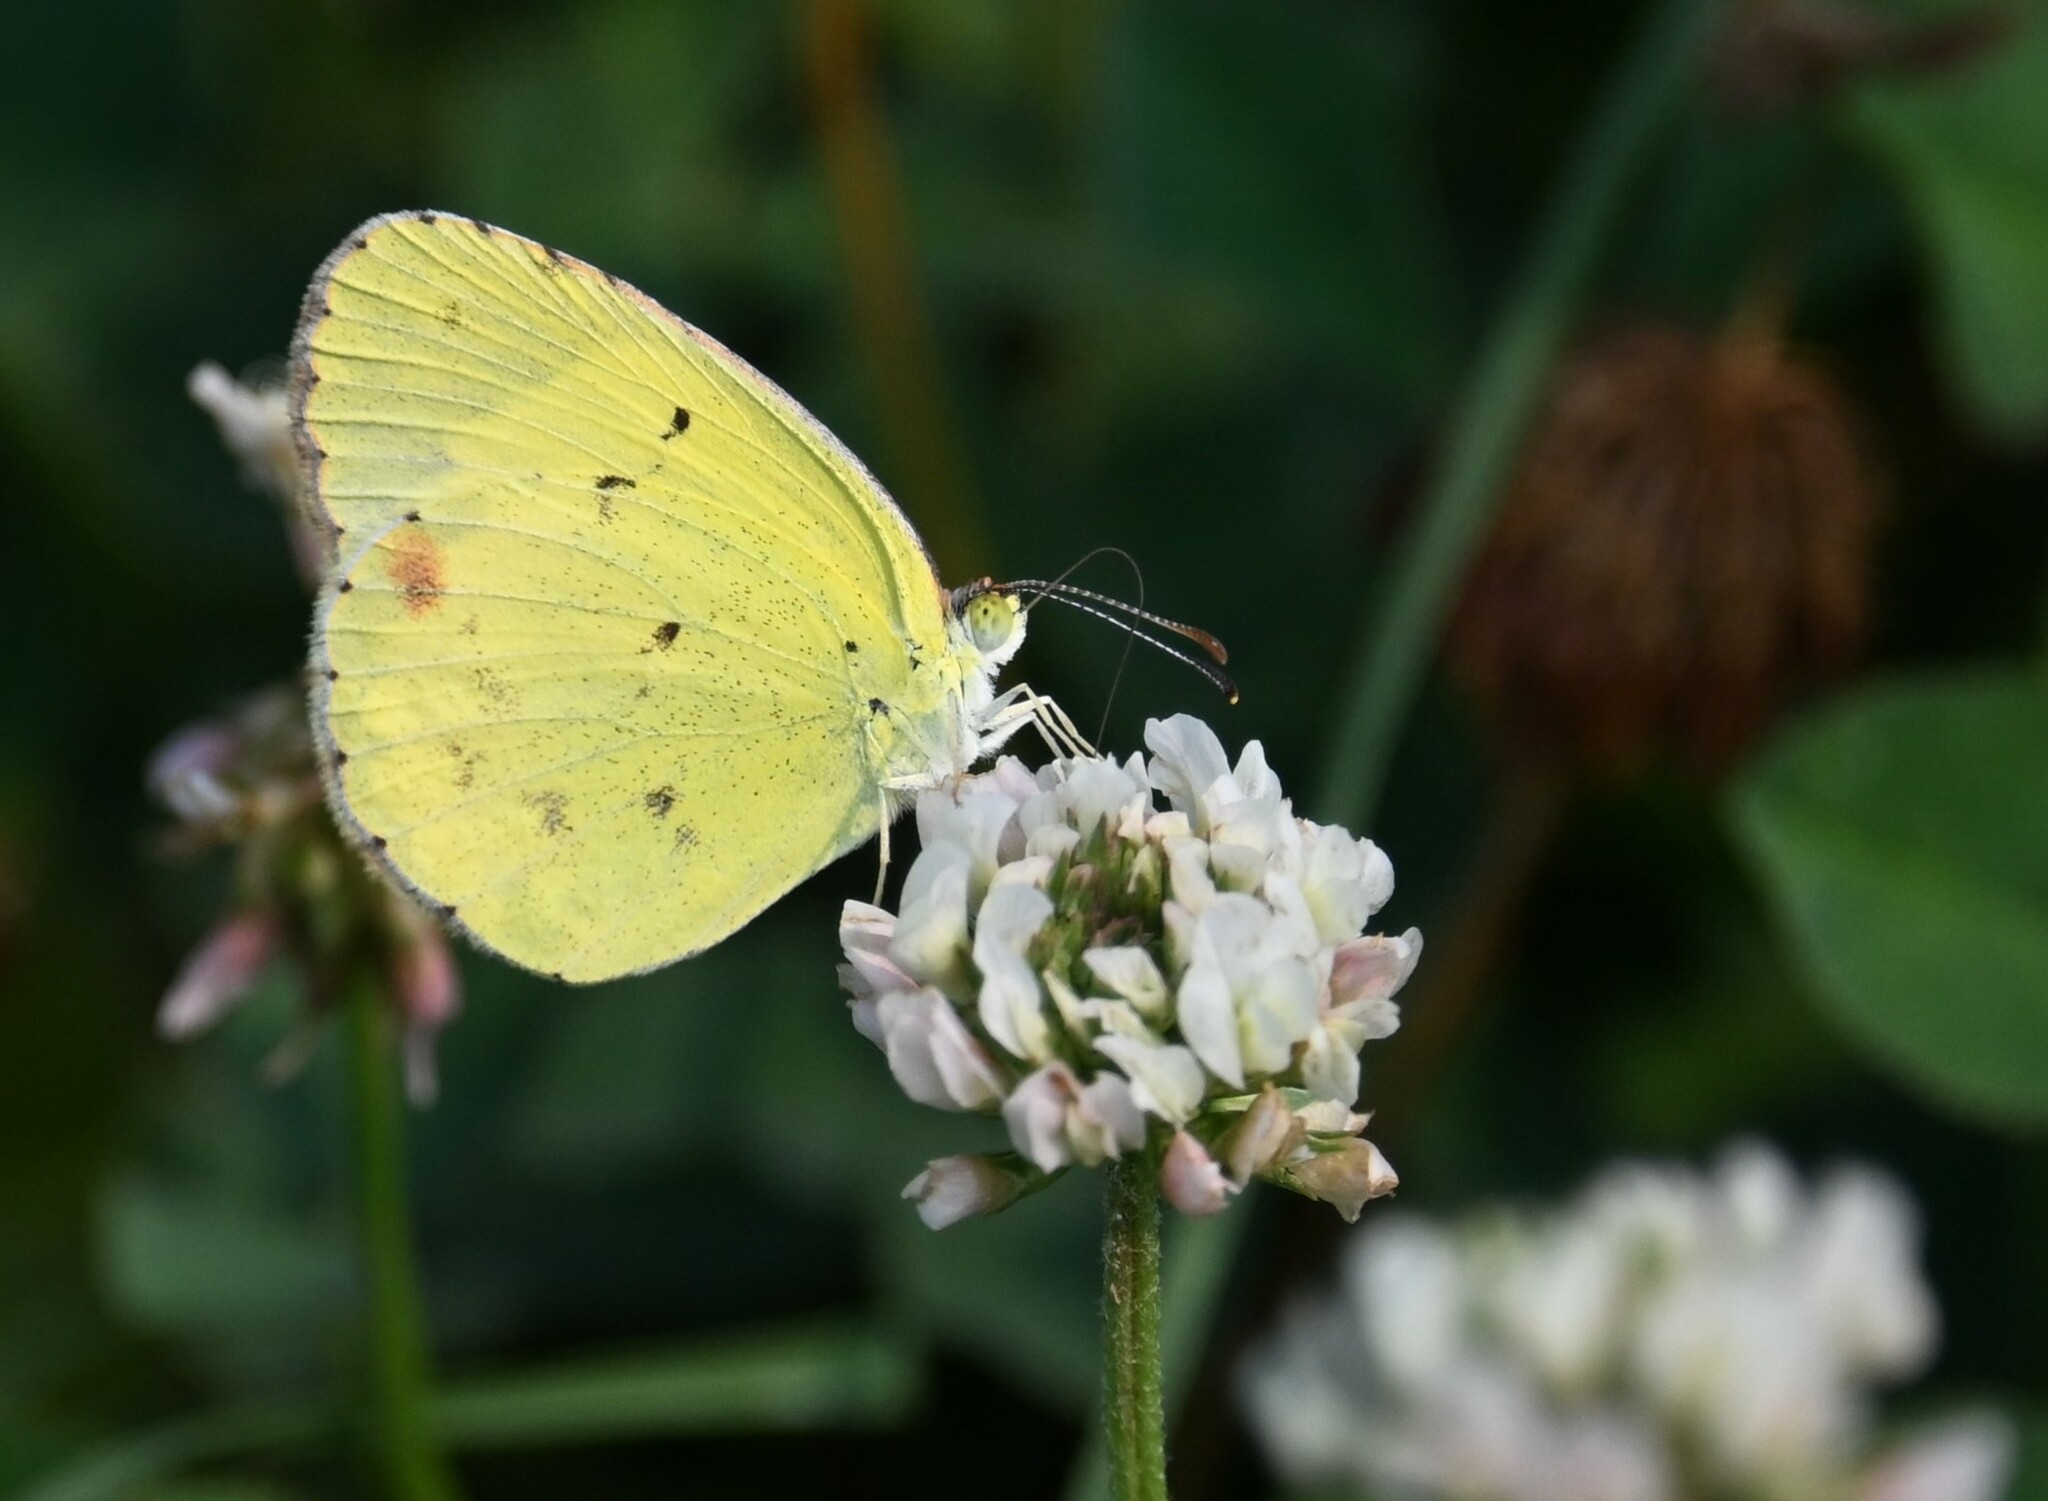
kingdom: Animalia
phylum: Arthropoda
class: Insecta
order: Lepidoptera
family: Pieridae
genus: Pyrisitia
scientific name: Pyrisitia lisa
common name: Little yellow
